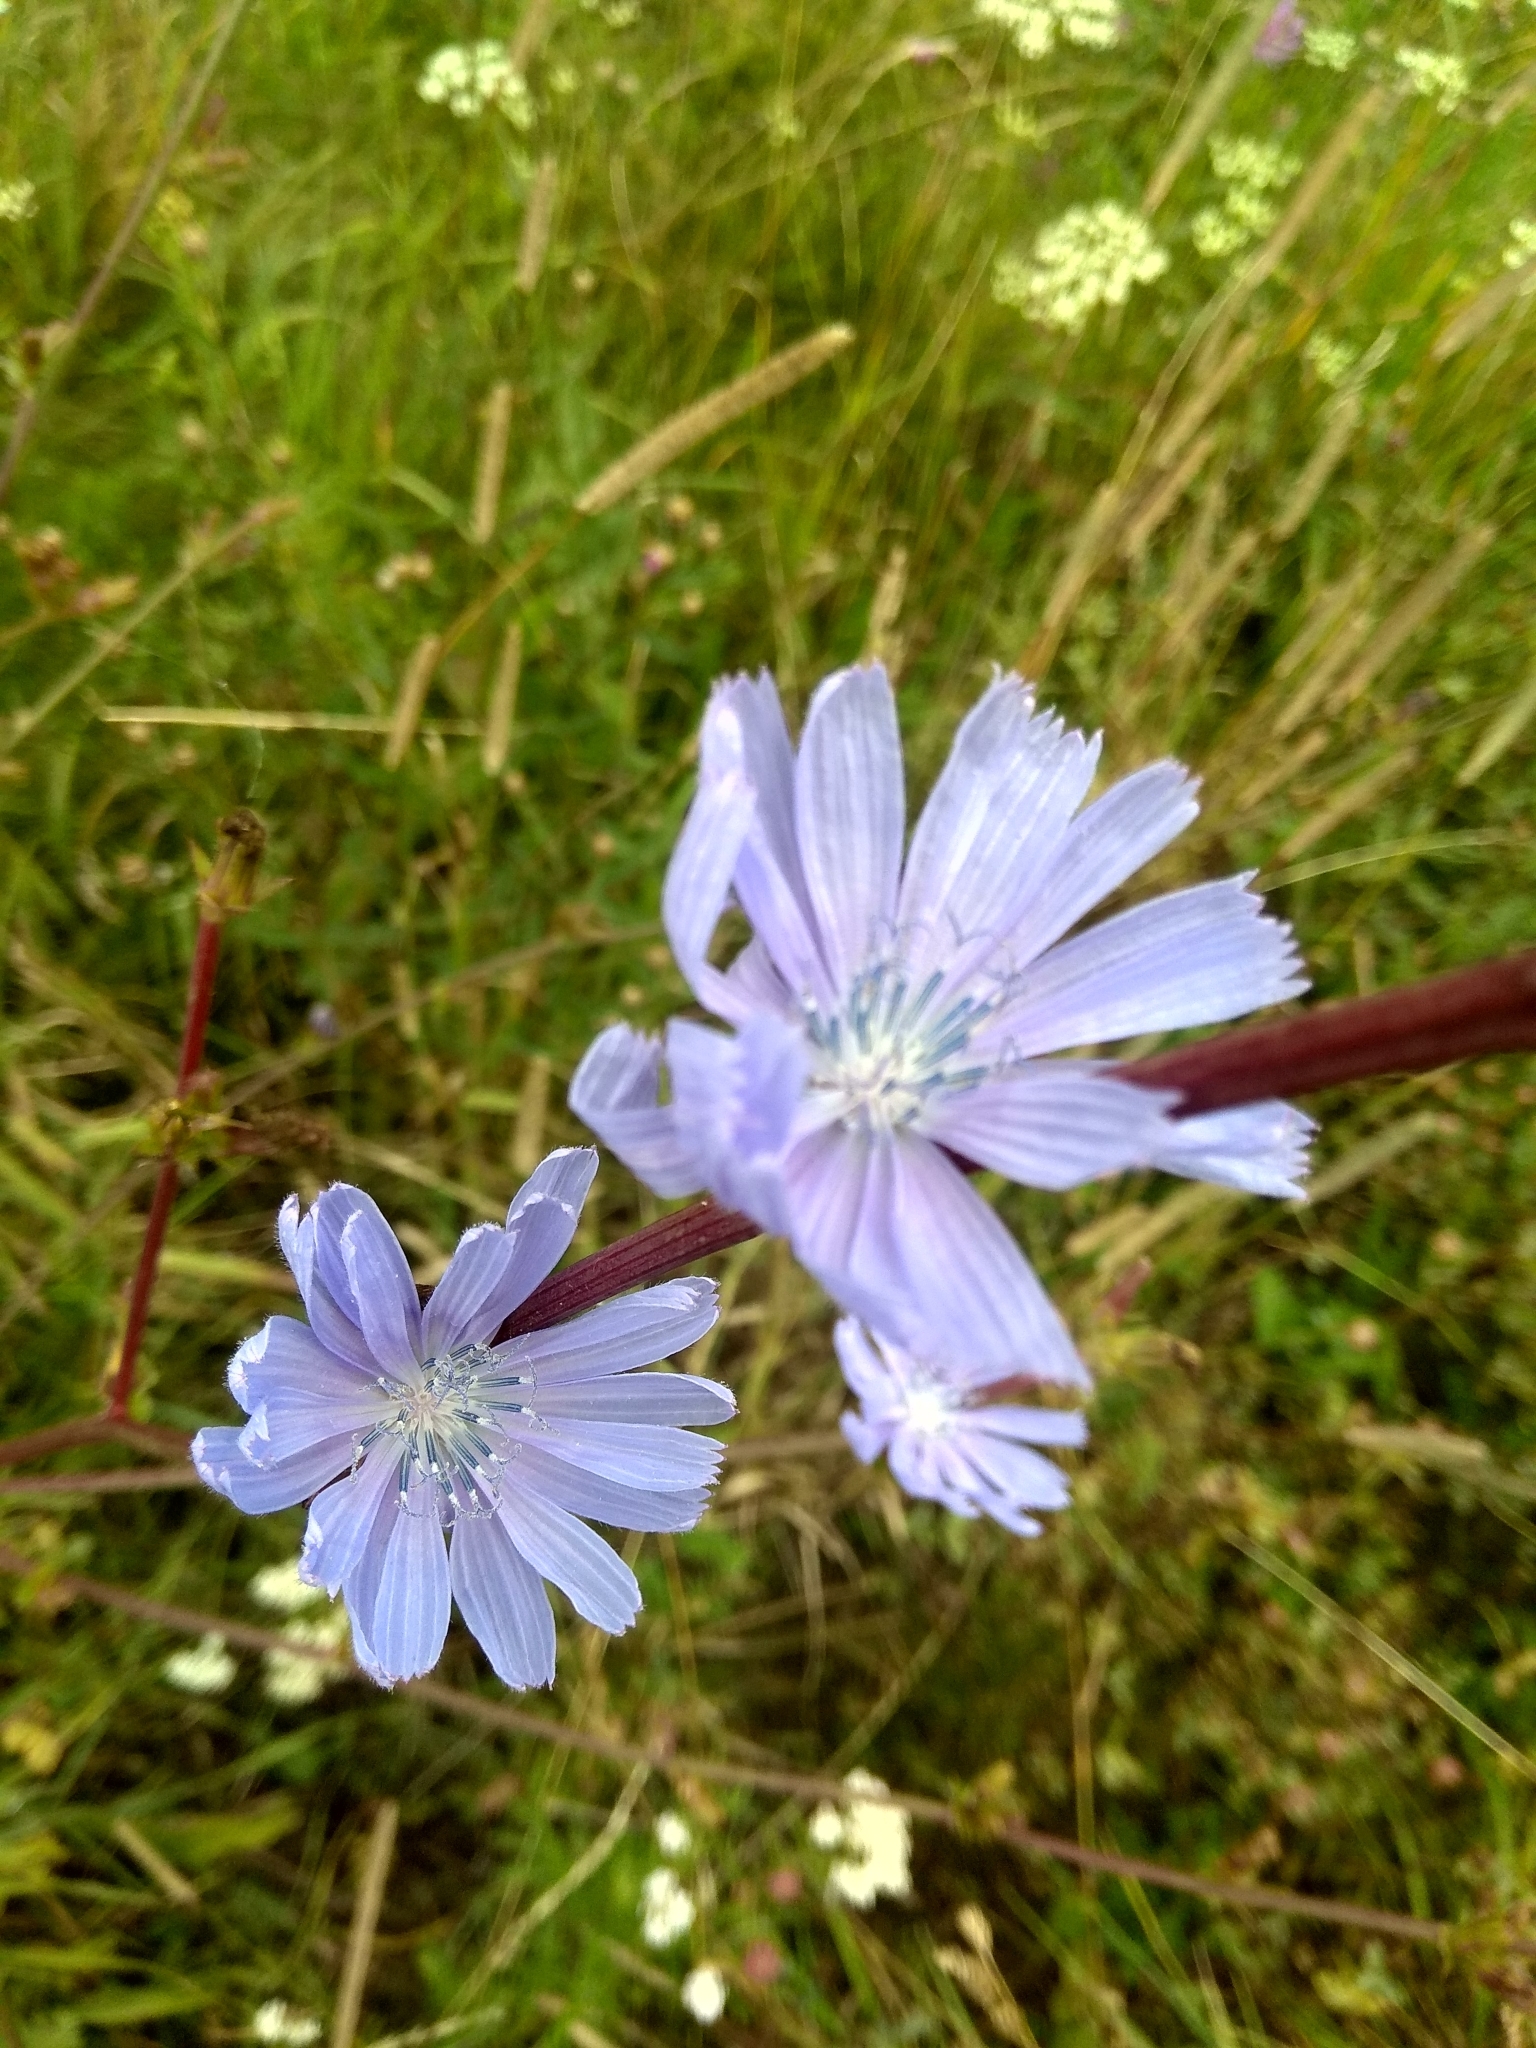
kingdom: Plantae
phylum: Tracheophyta
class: Magnoliopsida
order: Asterales
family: Asteraceae
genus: Cichorium
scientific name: Cichorium intybus
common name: Chicory
